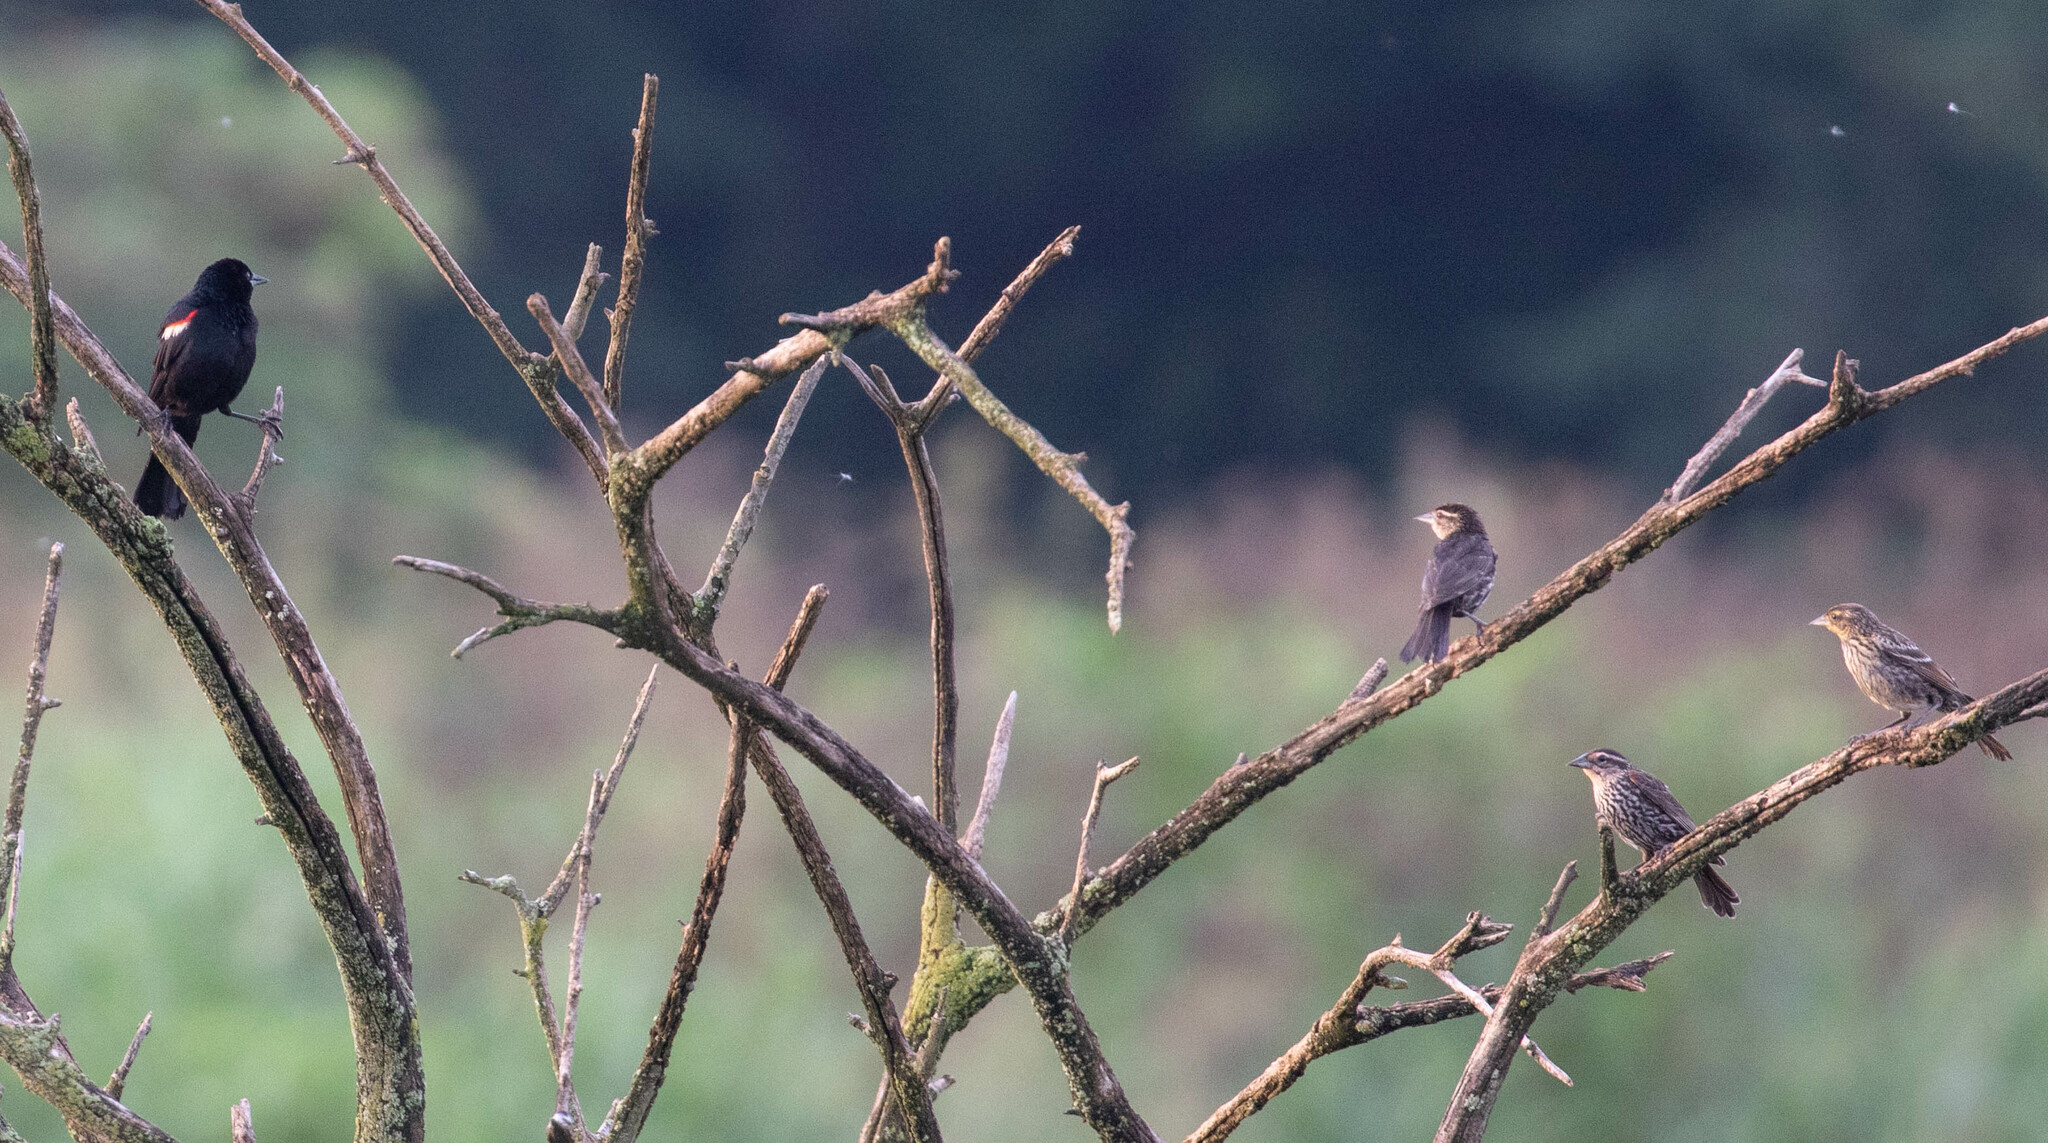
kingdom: Animalia
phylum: Chordata
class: Aves
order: Passeriformes
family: Icteridae
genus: Agelaius
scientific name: Agelaius phoeniceus
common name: Red-winged blackbird
